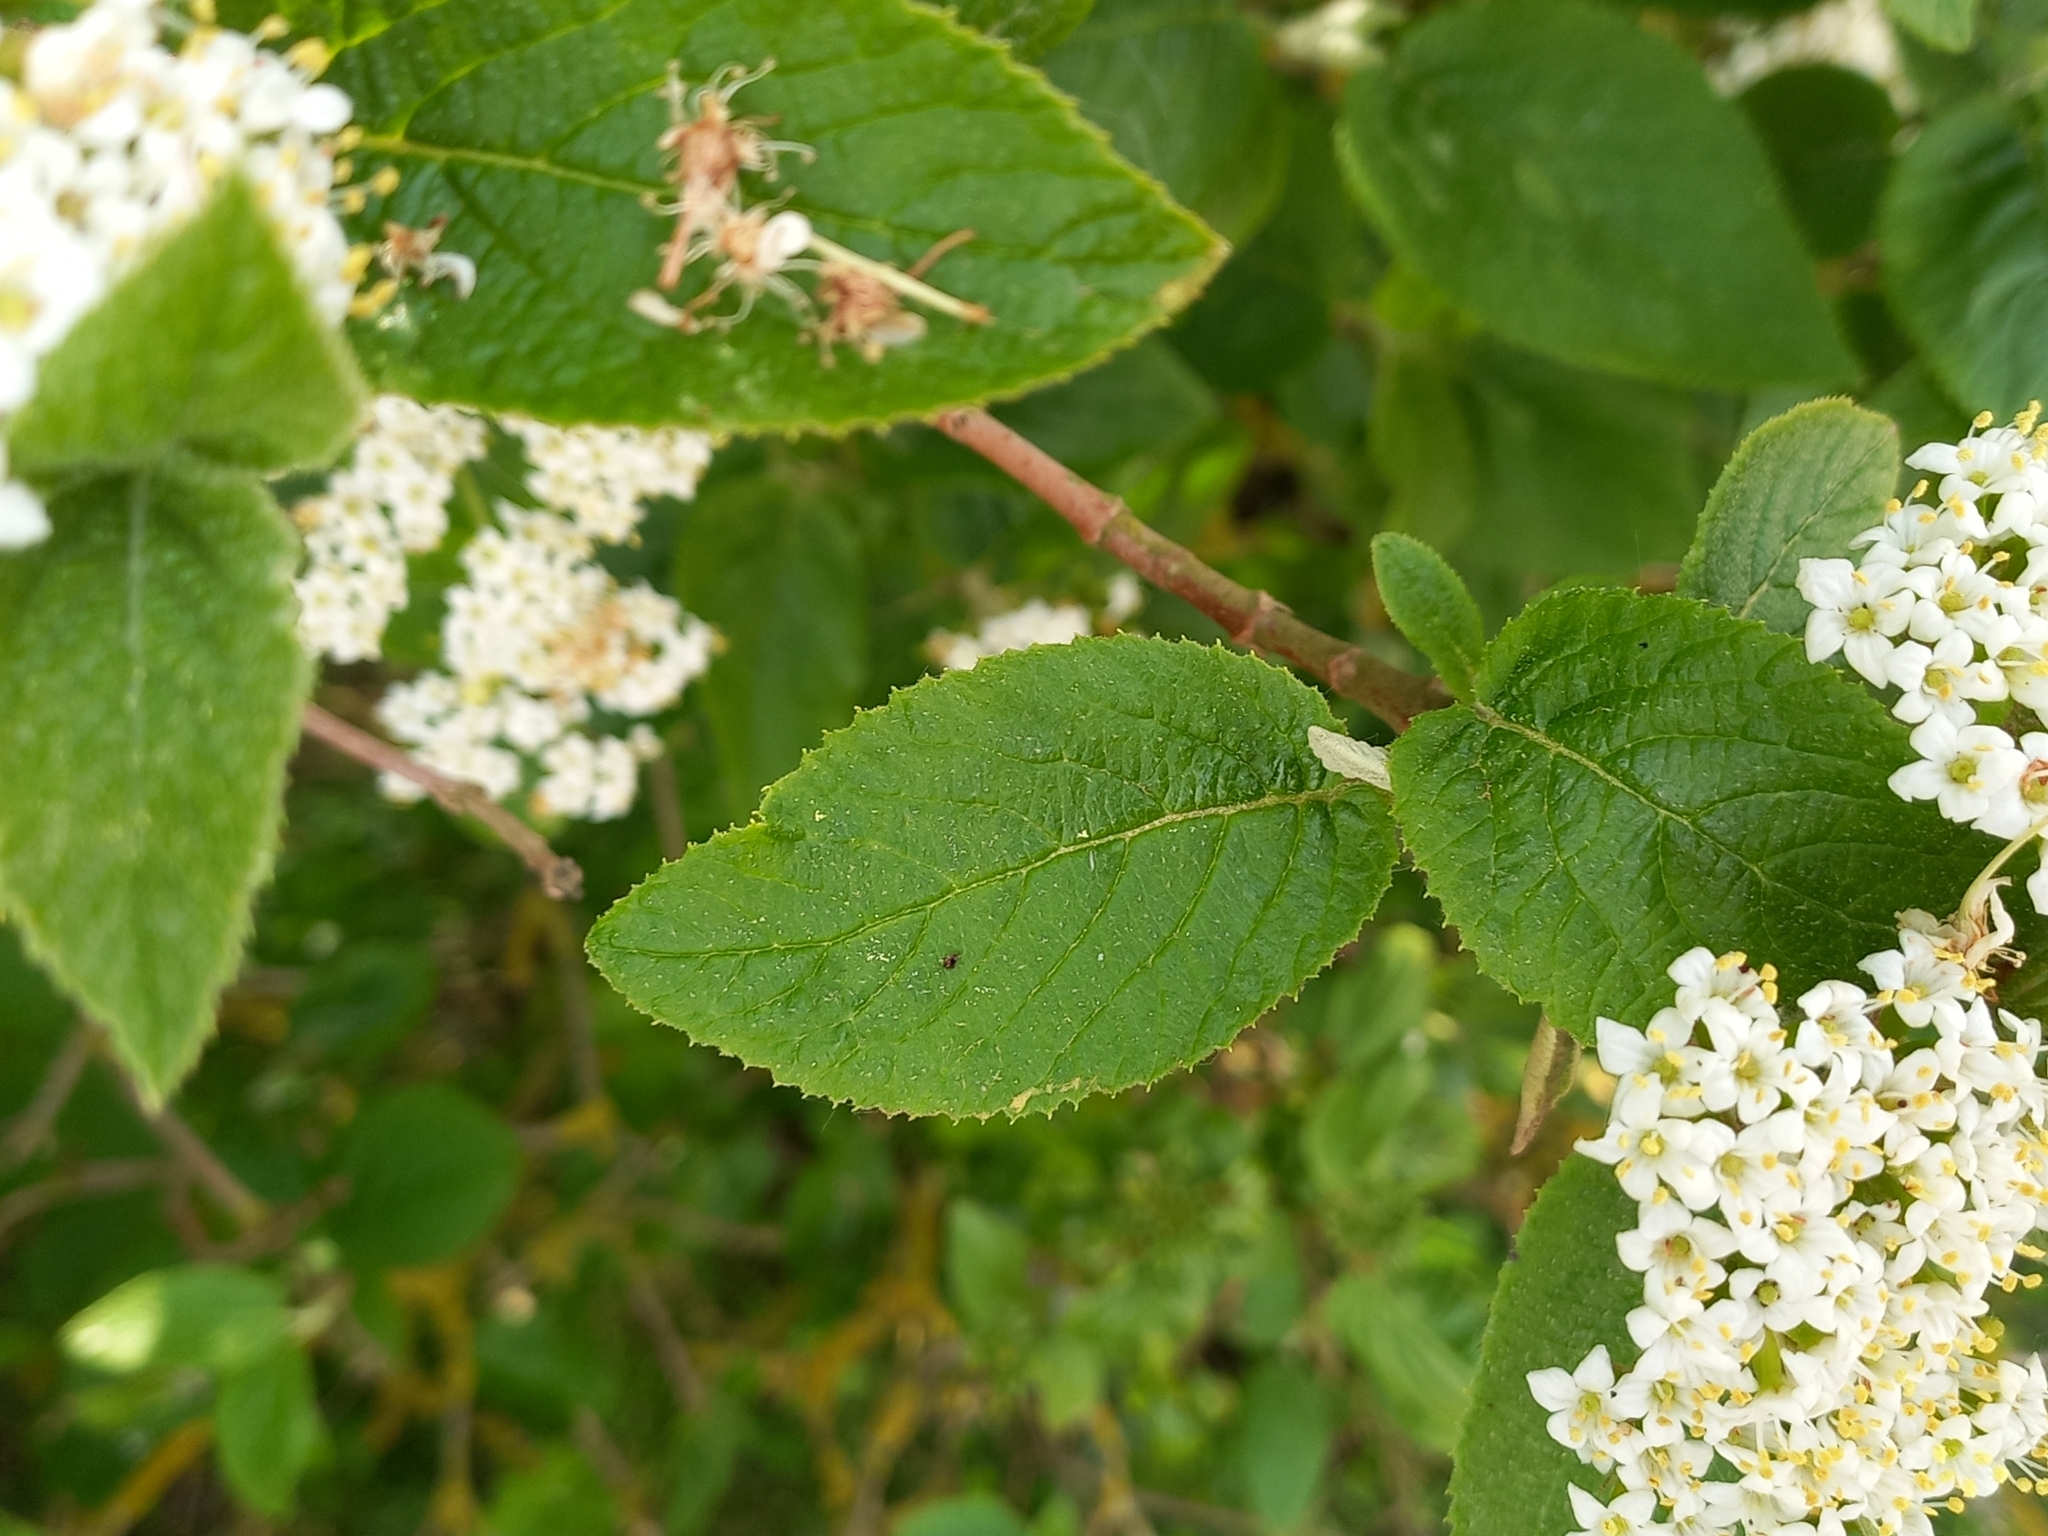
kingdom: Plantae
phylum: Tracheophyta
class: Magnoliopsida
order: Dipsacales
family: Viburnaceae
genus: Viburnum
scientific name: Viburnum lantana
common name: Wayfaring tree
